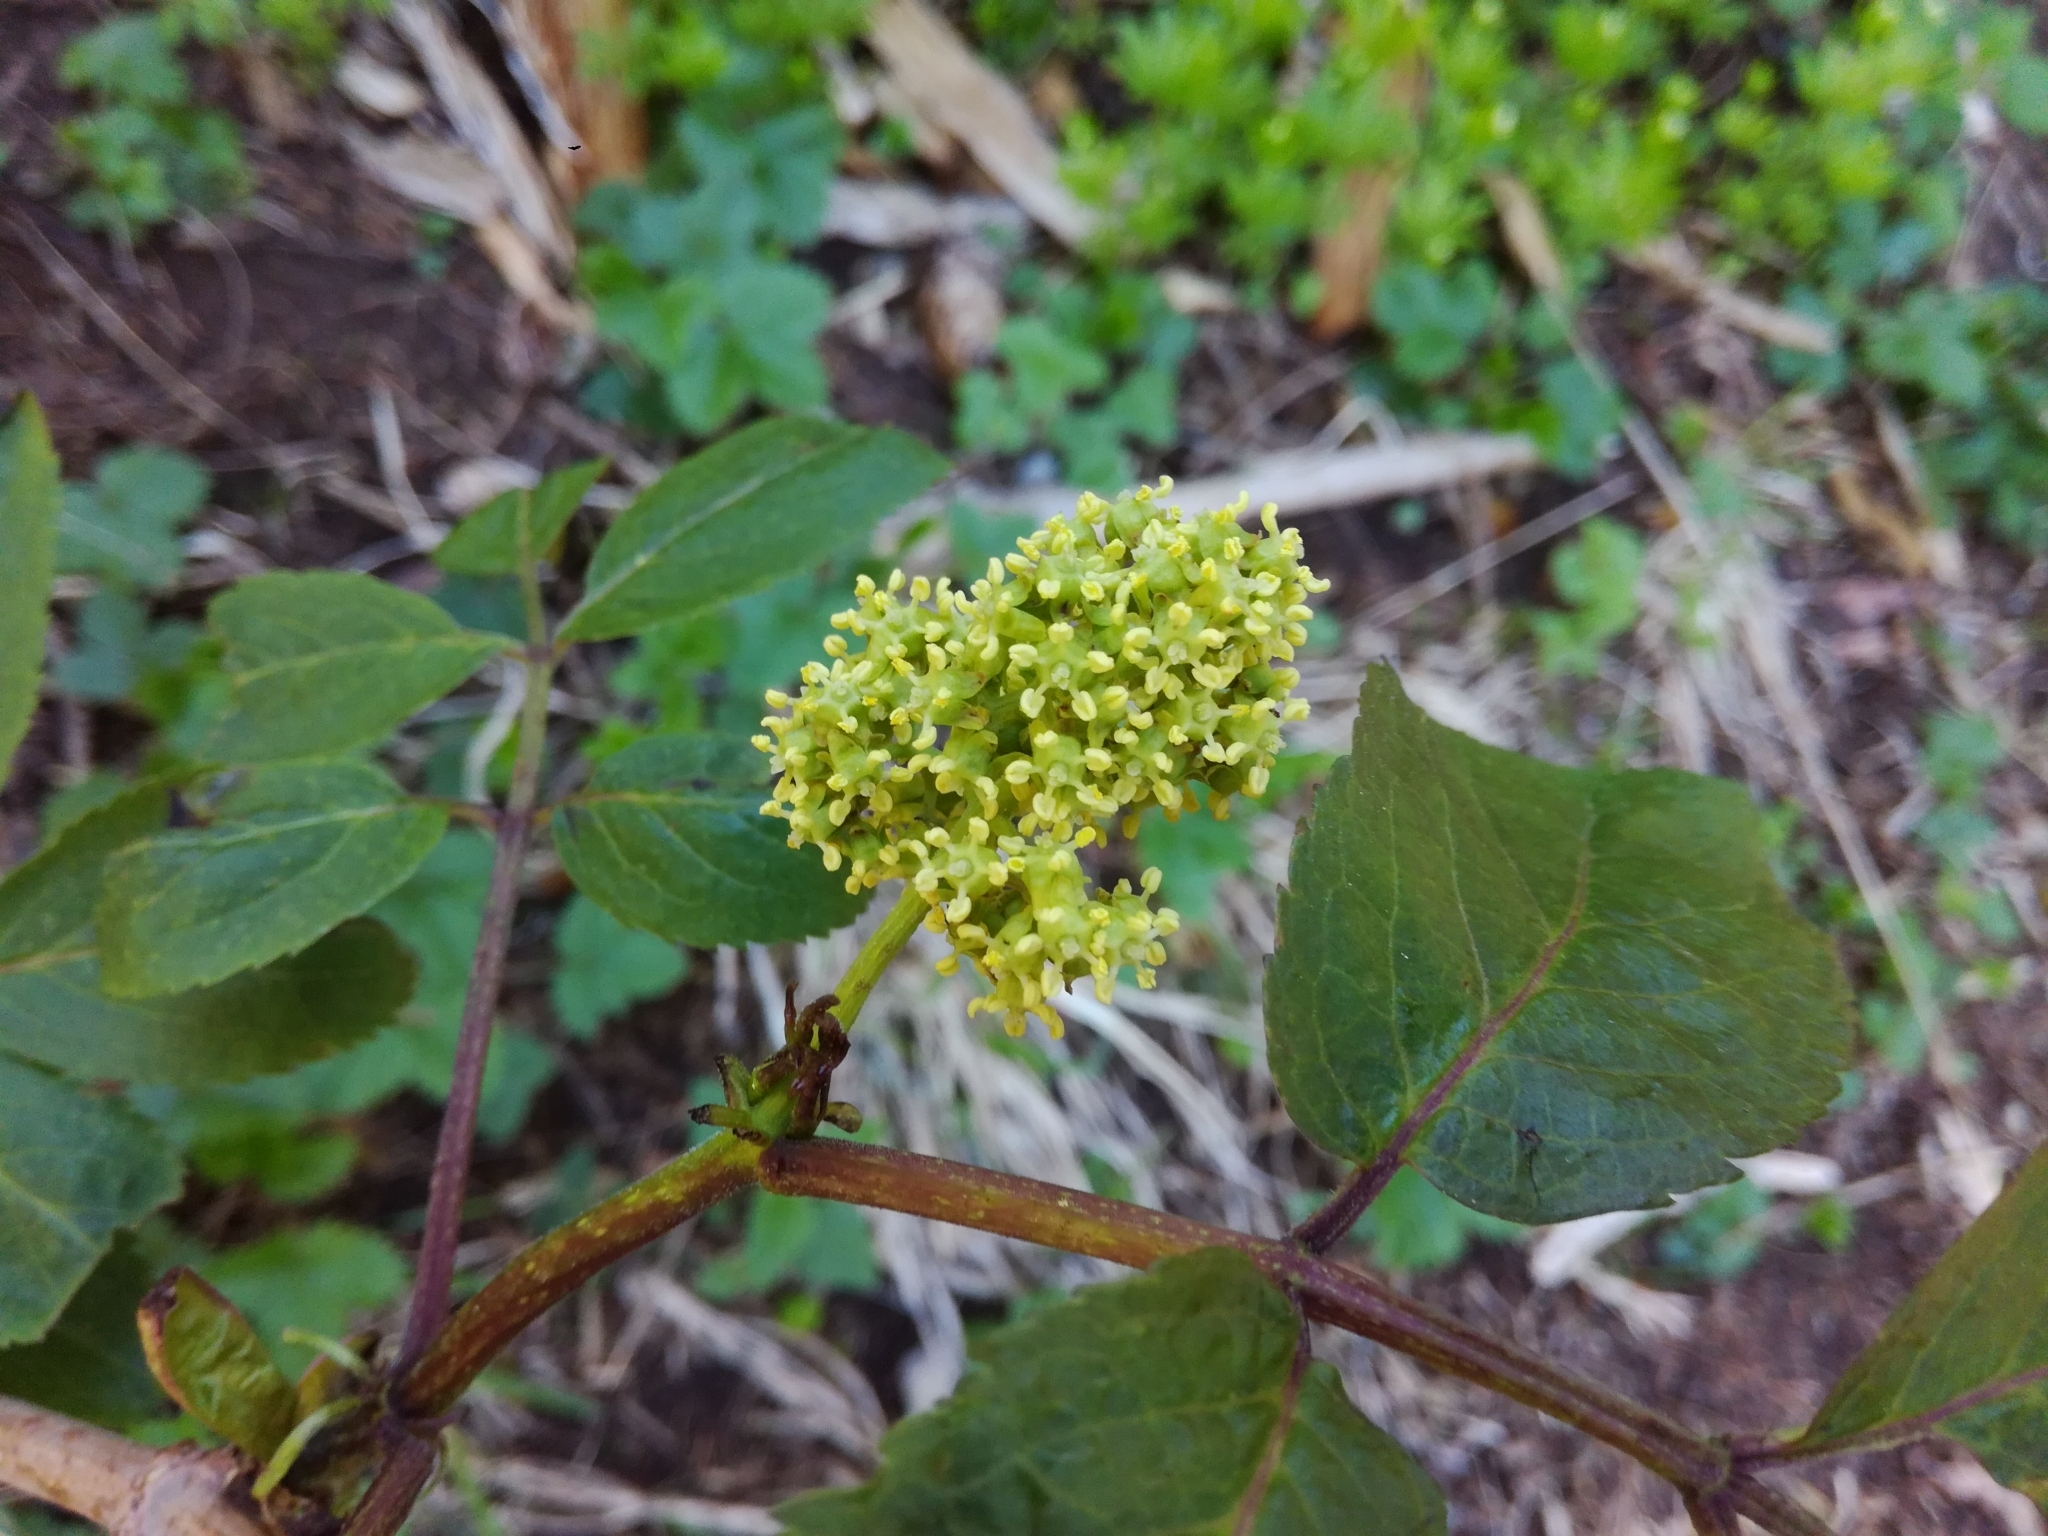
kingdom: Plantae
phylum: Tracheophyta
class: Magnoliopsida
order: Dipsacales
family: Viburnaceae
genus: Sambucus
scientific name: Sambucus racemosa
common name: Red-berried elder
